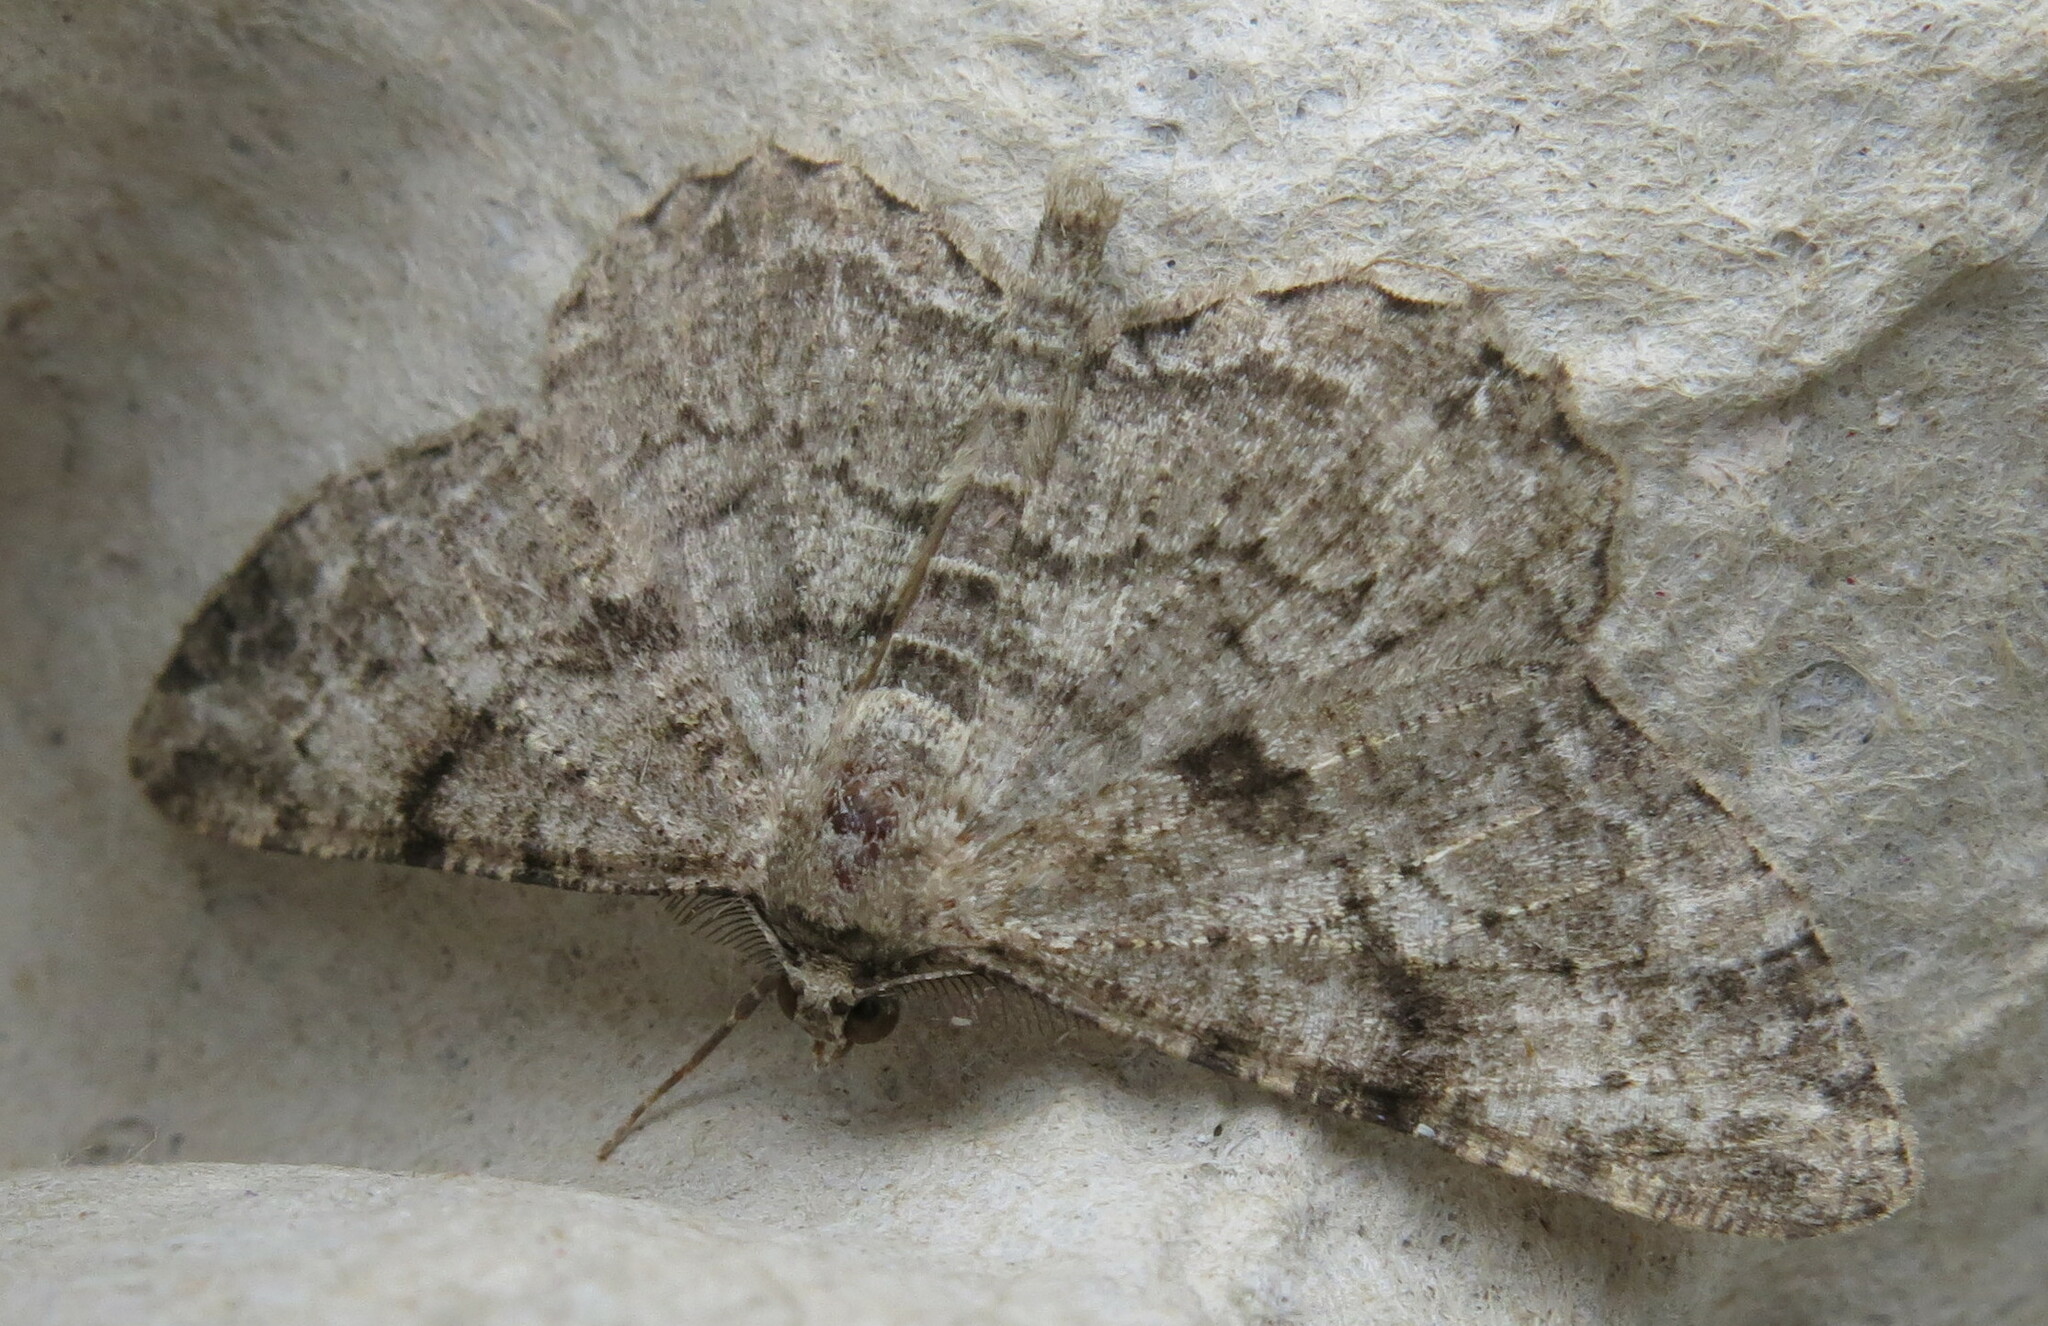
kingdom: Animalia
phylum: Arthropoda
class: Insecta
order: Lepidoptera
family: Geometridae
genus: Peribatodes
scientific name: Peribatodes rhomboidaria
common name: Willow beauty
